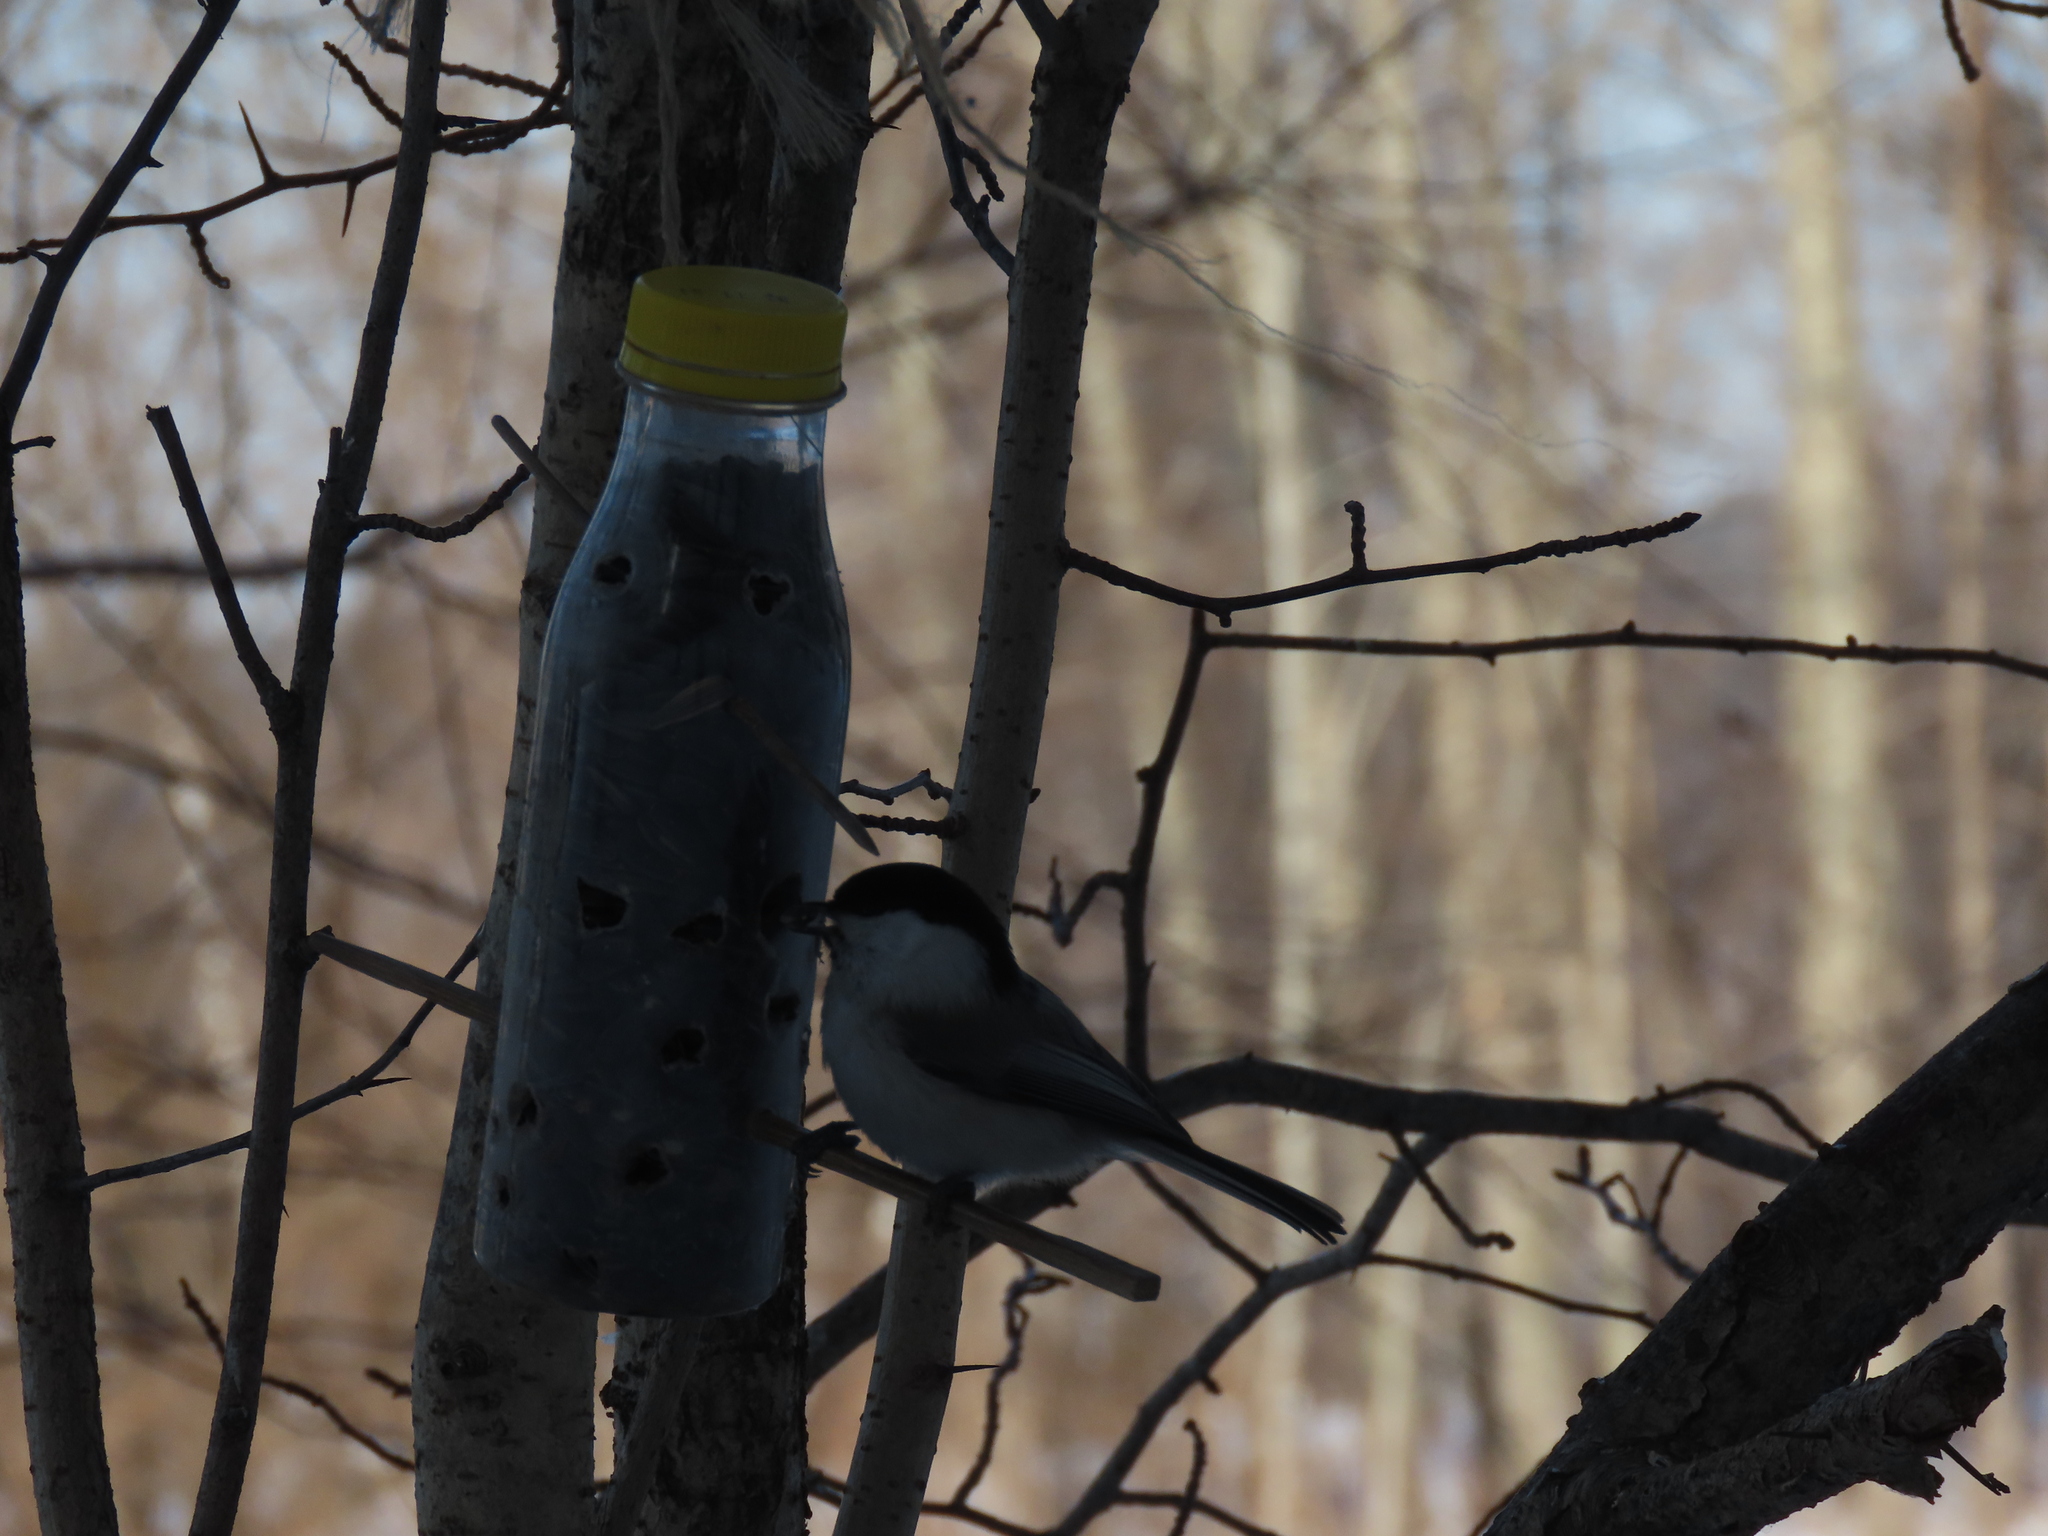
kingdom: Animalia
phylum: Chordata
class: Aves
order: Passeriformes
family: Paridae
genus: Poecile
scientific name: Poecile montanus
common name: Willow tit
